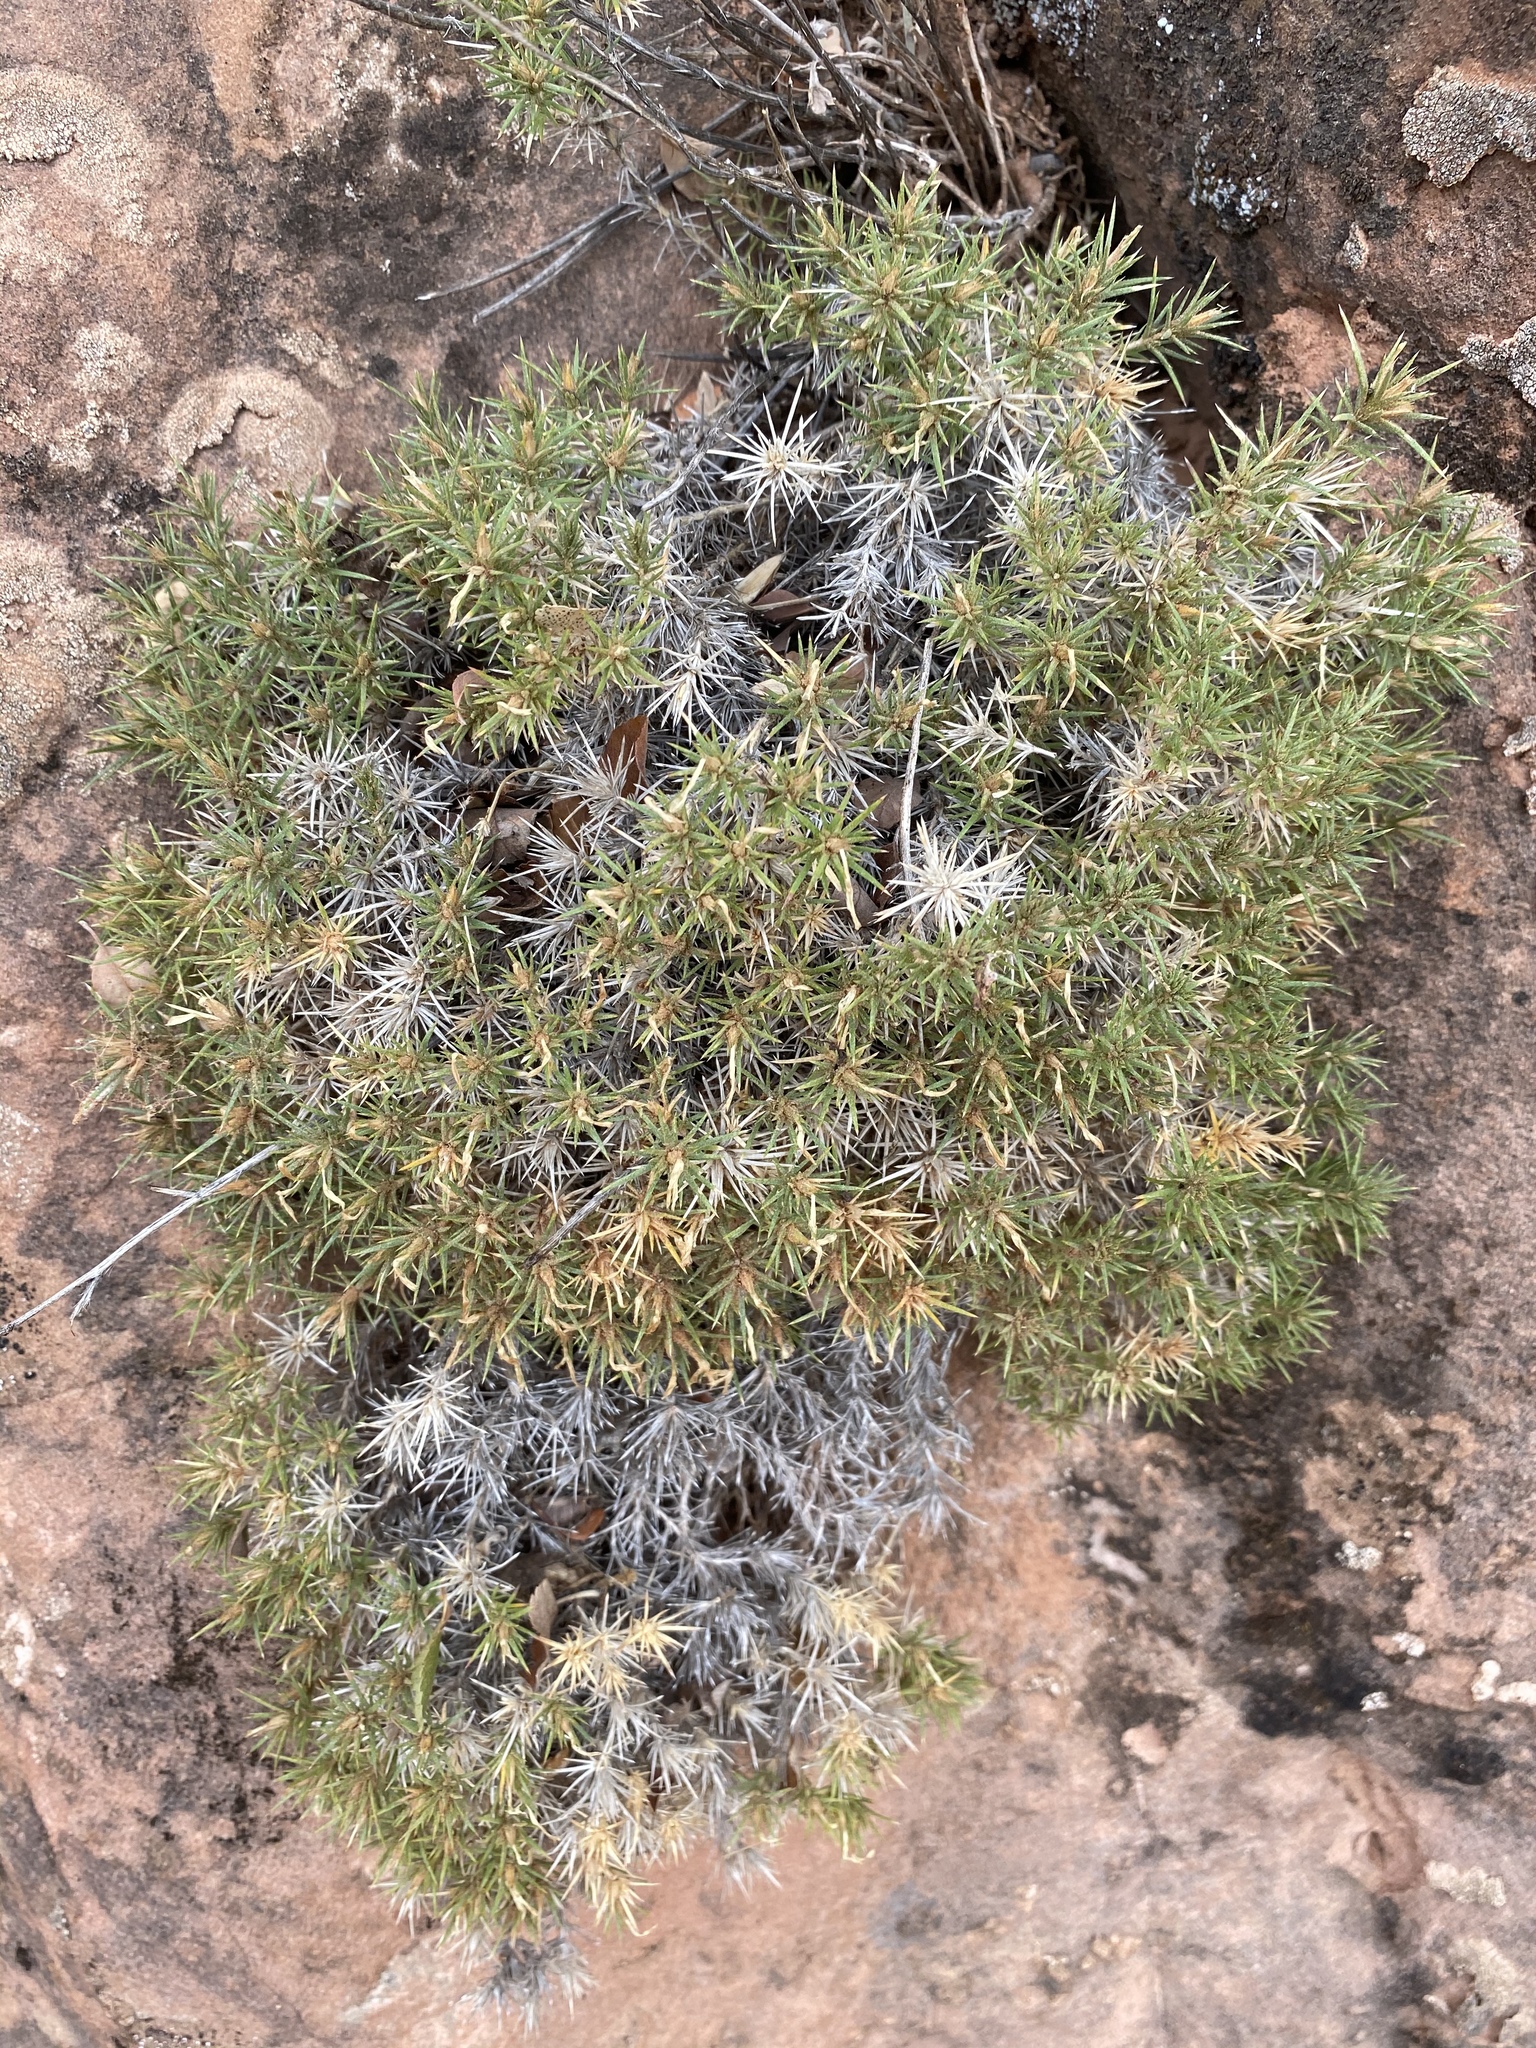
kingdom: Plantae
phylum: Tracheophyta
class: Magnoliopsida
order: Ericales
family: Polemoniaceae
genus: Linanthus
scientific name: Linanthus watsonii
